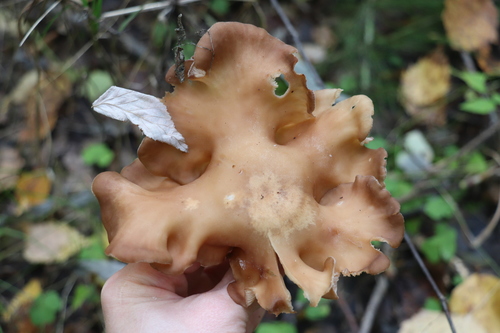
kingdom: Fungi
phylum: Basidiomycota
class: Agaricomycetes
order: Agaricales
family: Tricholomataceae
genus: Clitocybe
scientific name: Clitocybe
